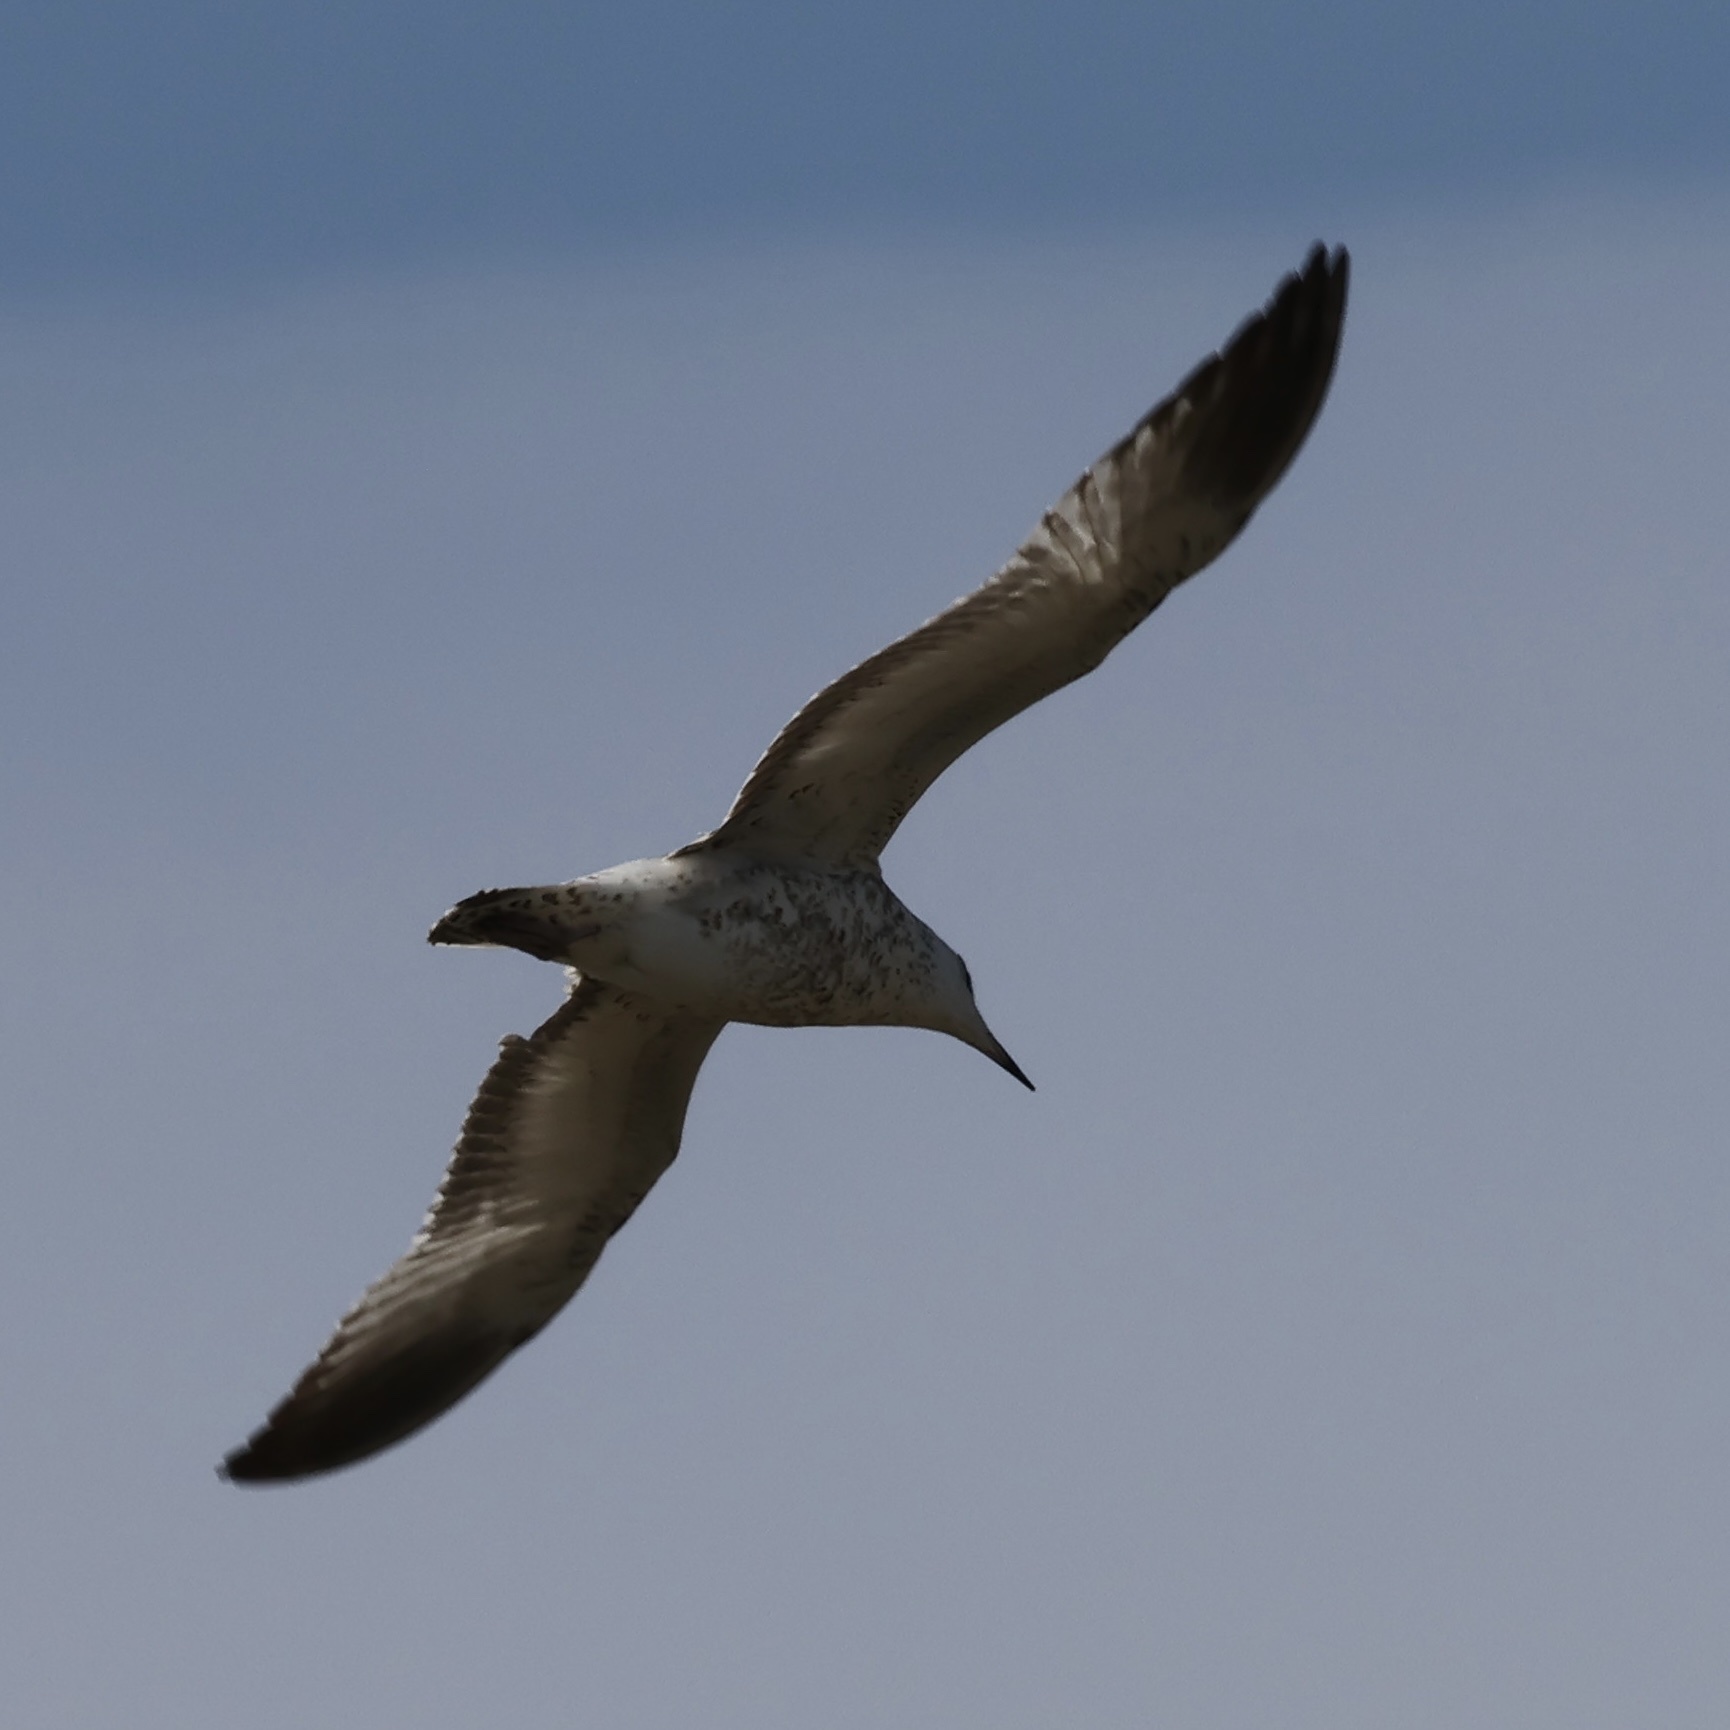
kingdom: Animalia
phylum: Chordata
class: Aves
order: Charadriiformes
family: Laridae
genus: Larus
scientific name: Larus delawarensis
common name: Ring-billed gull
